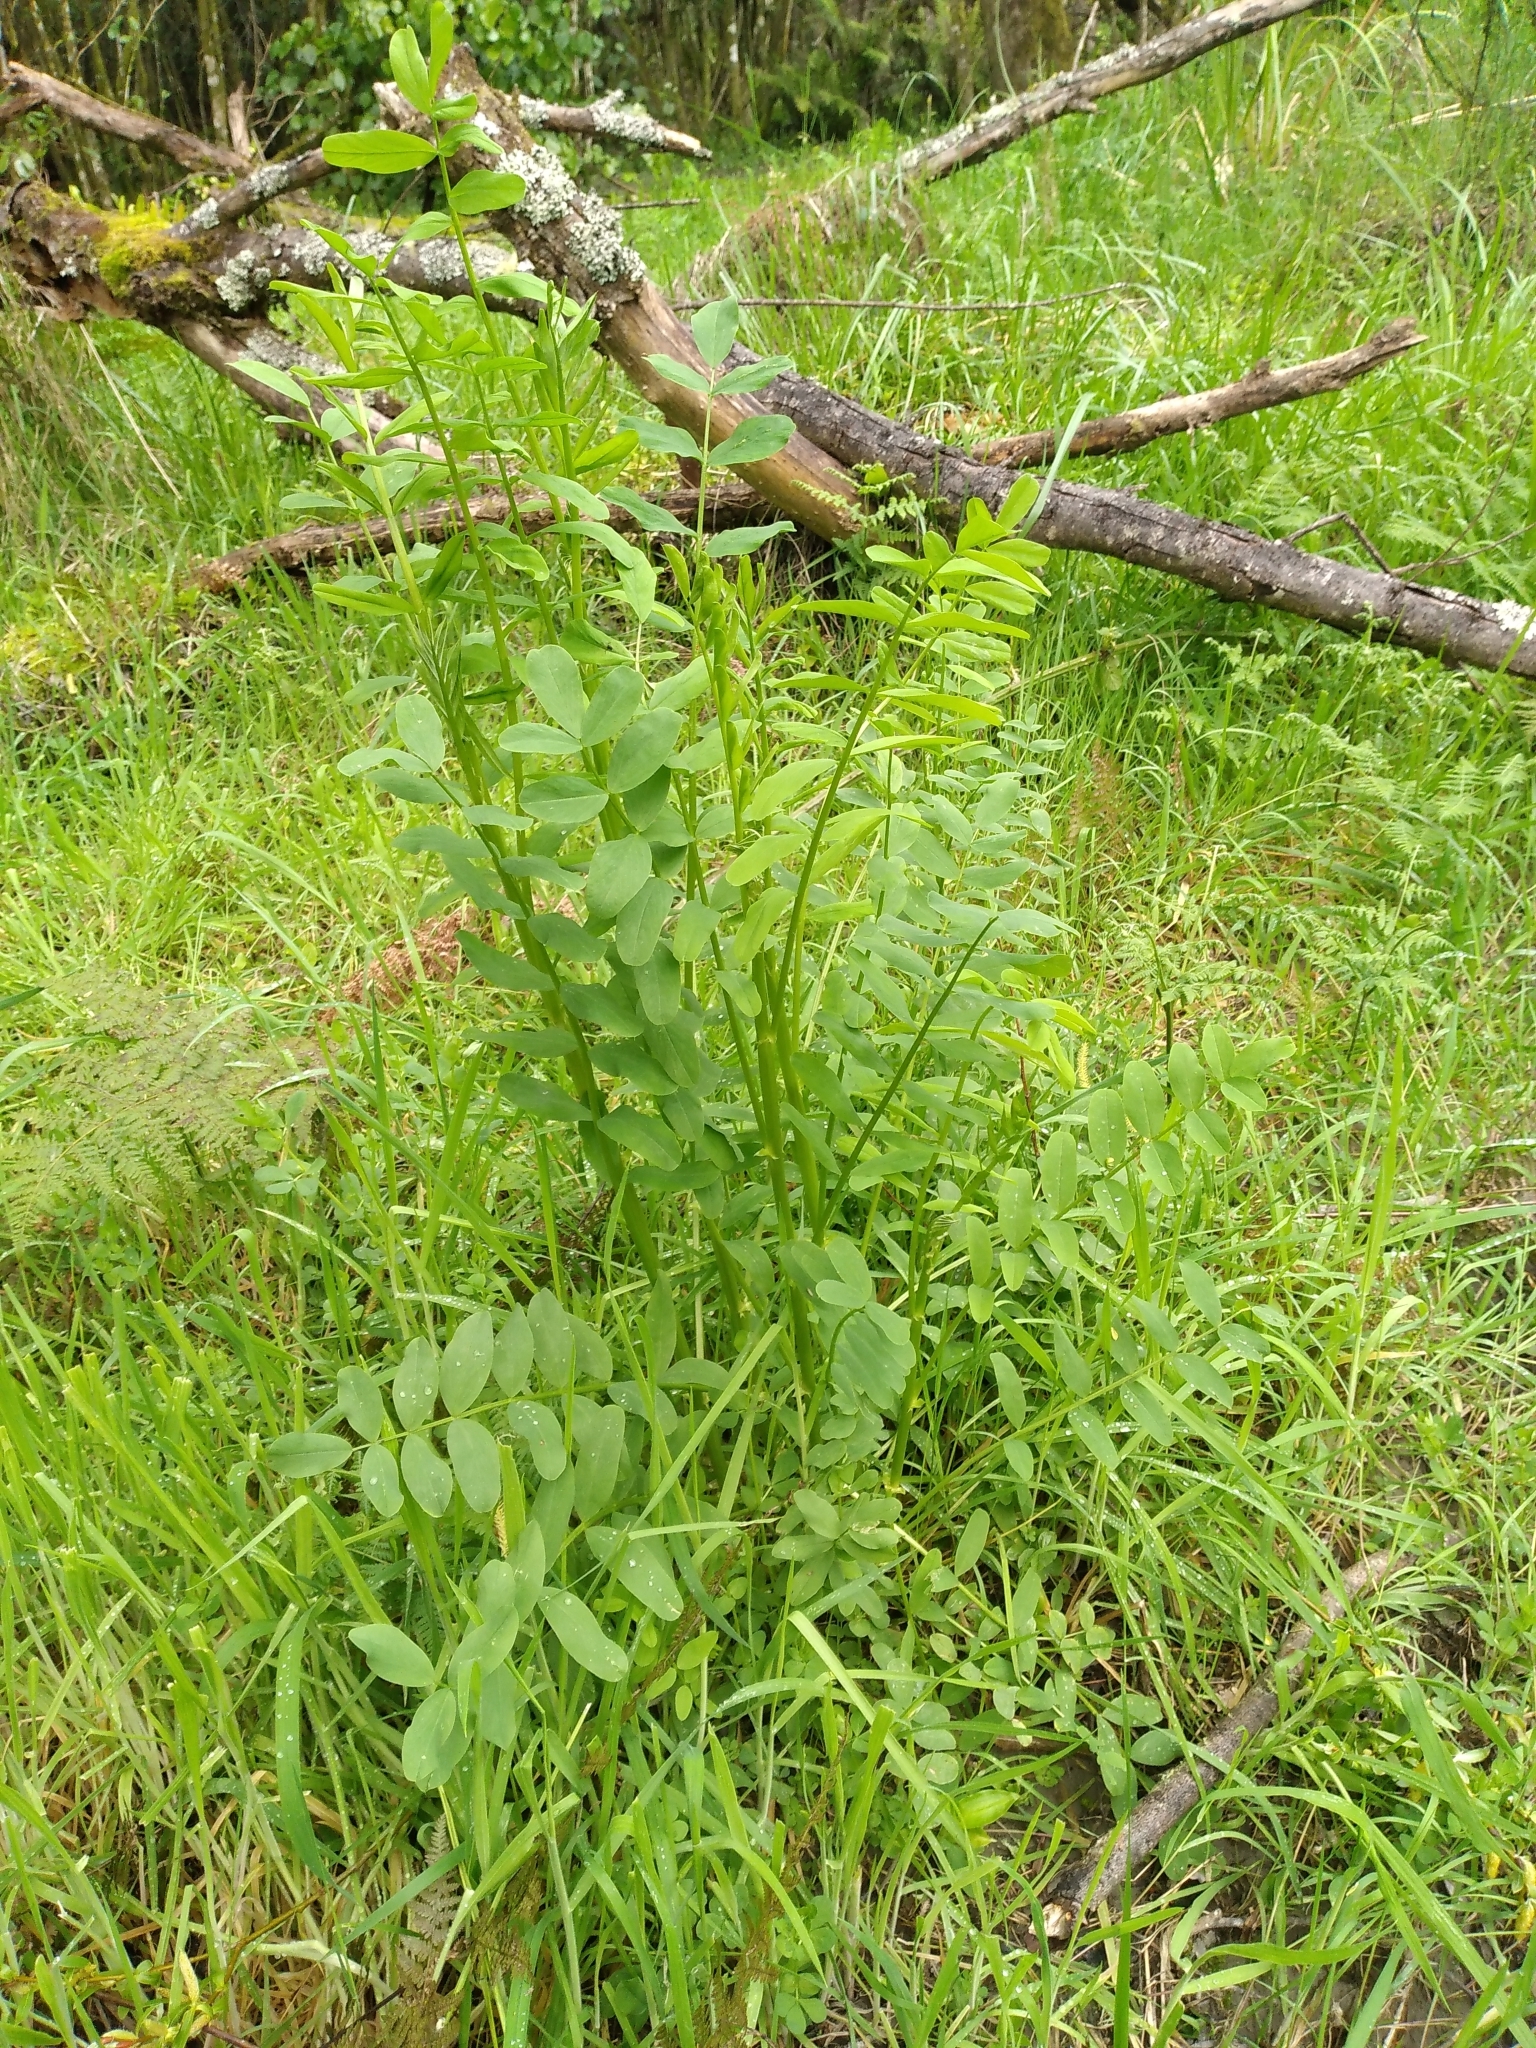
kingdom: Plantae
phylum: Tracheophyta
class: Magnoliopsida
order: Fabales
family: Fabaceae
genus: Galega
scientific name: Galega officinalis
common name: Goat's-rue
